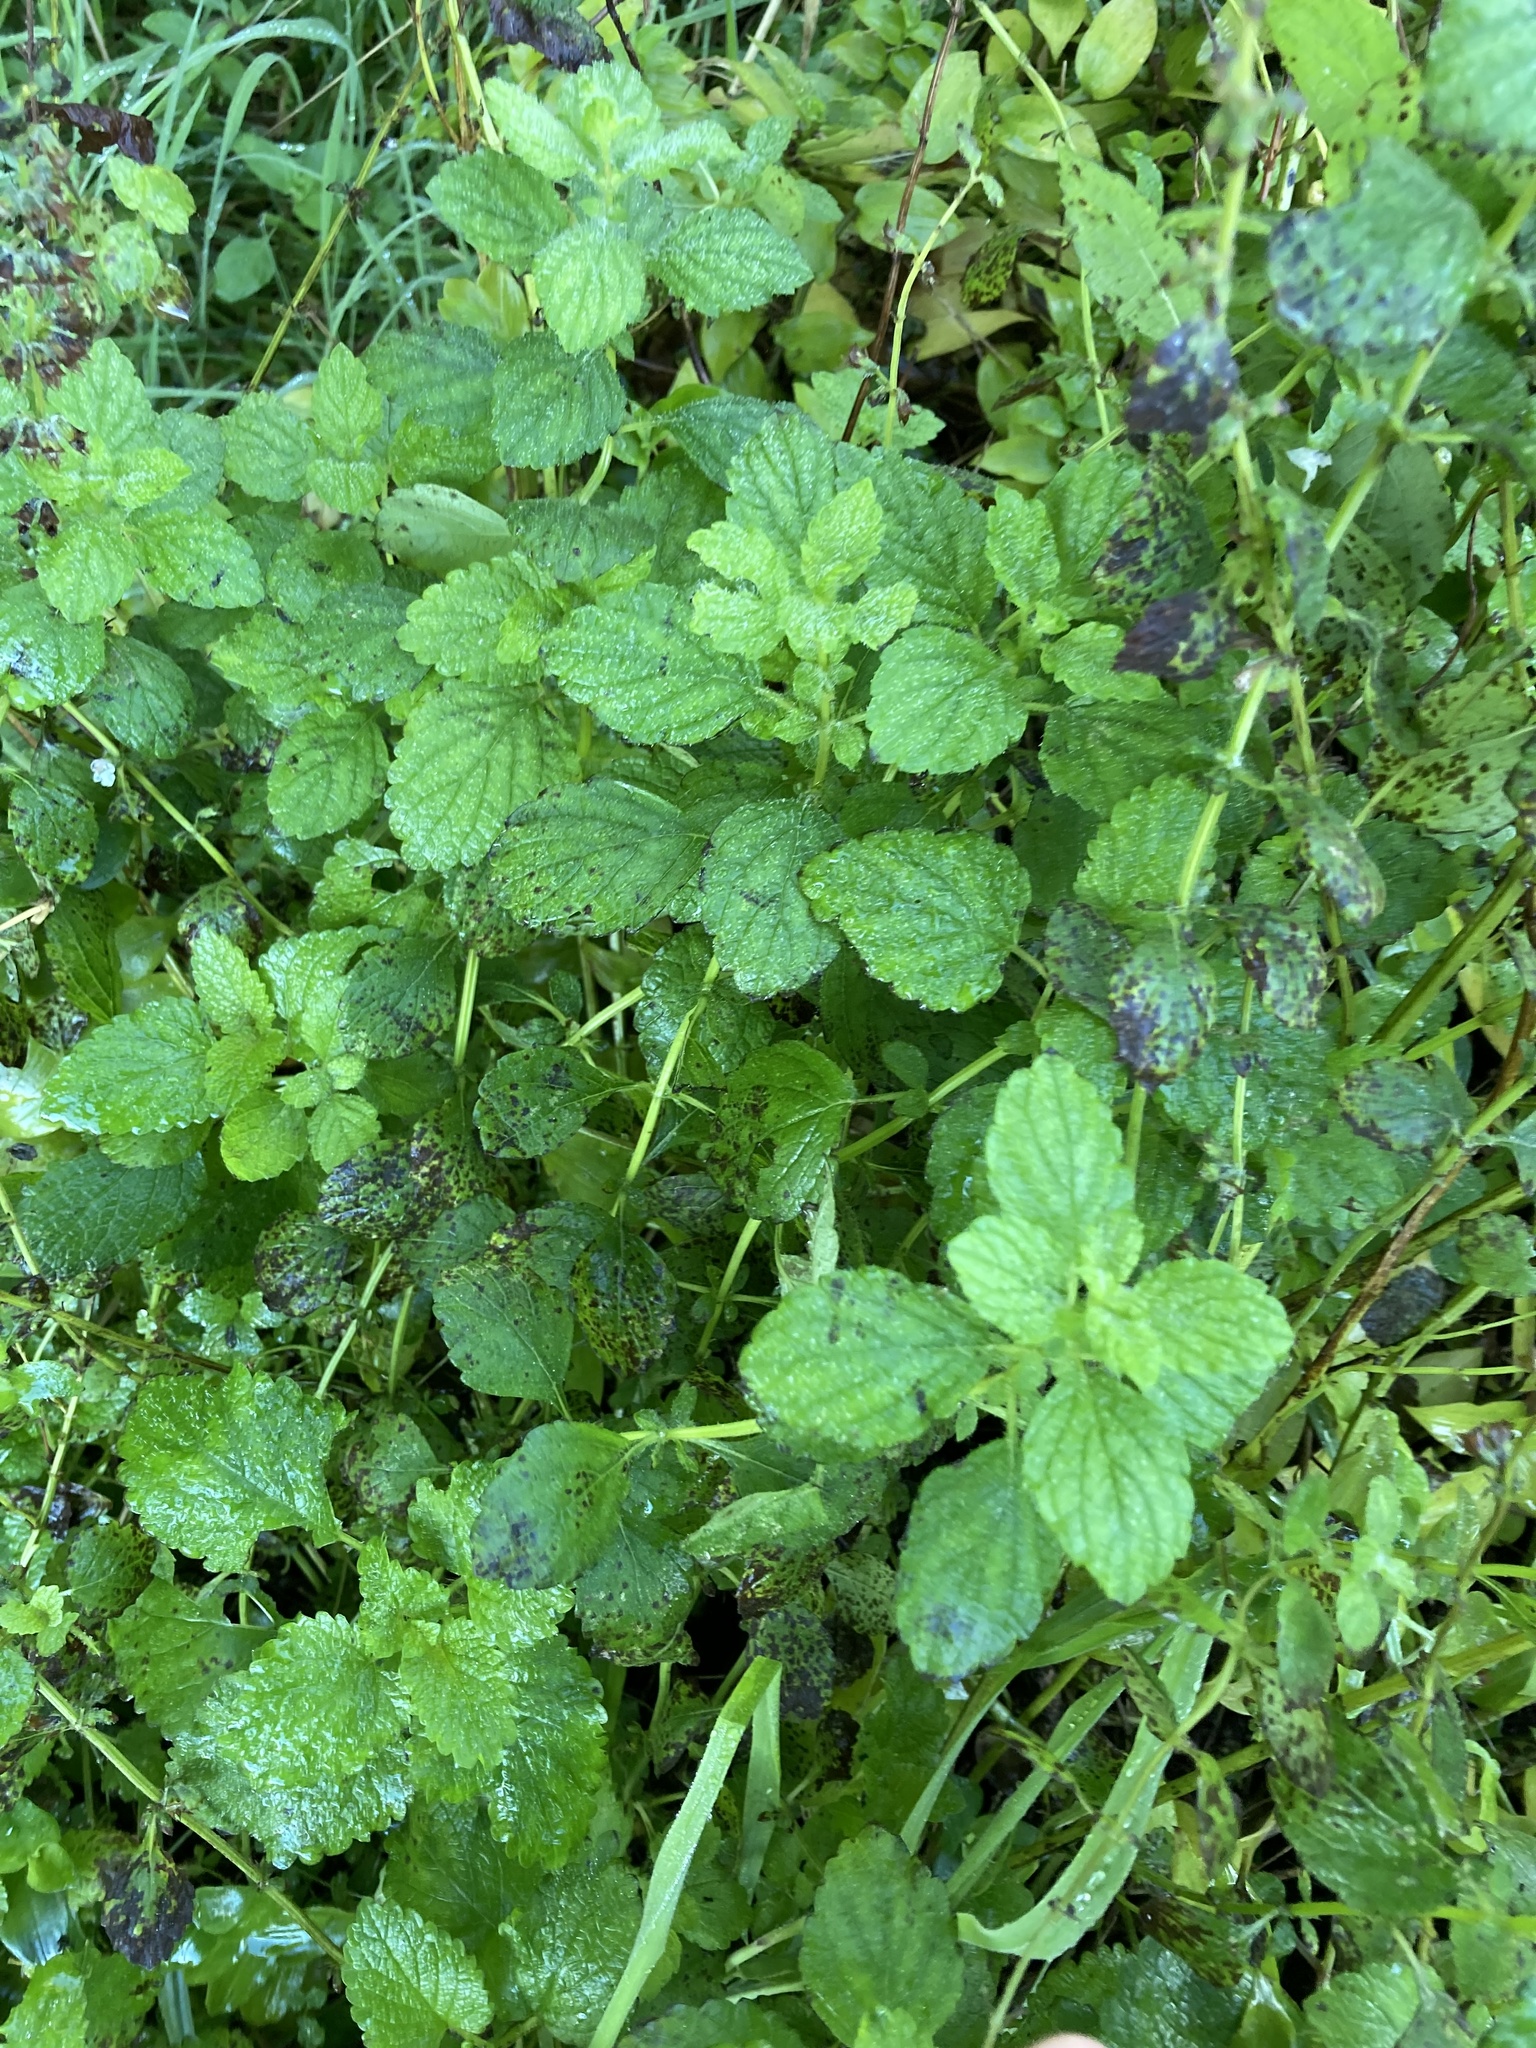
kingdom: Plantae
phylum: Tracheophyta
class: Magnoliopsida
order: Lamiales
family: Lamiaceae
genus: Melissa
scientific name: Melissa officinalis
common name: Balm
